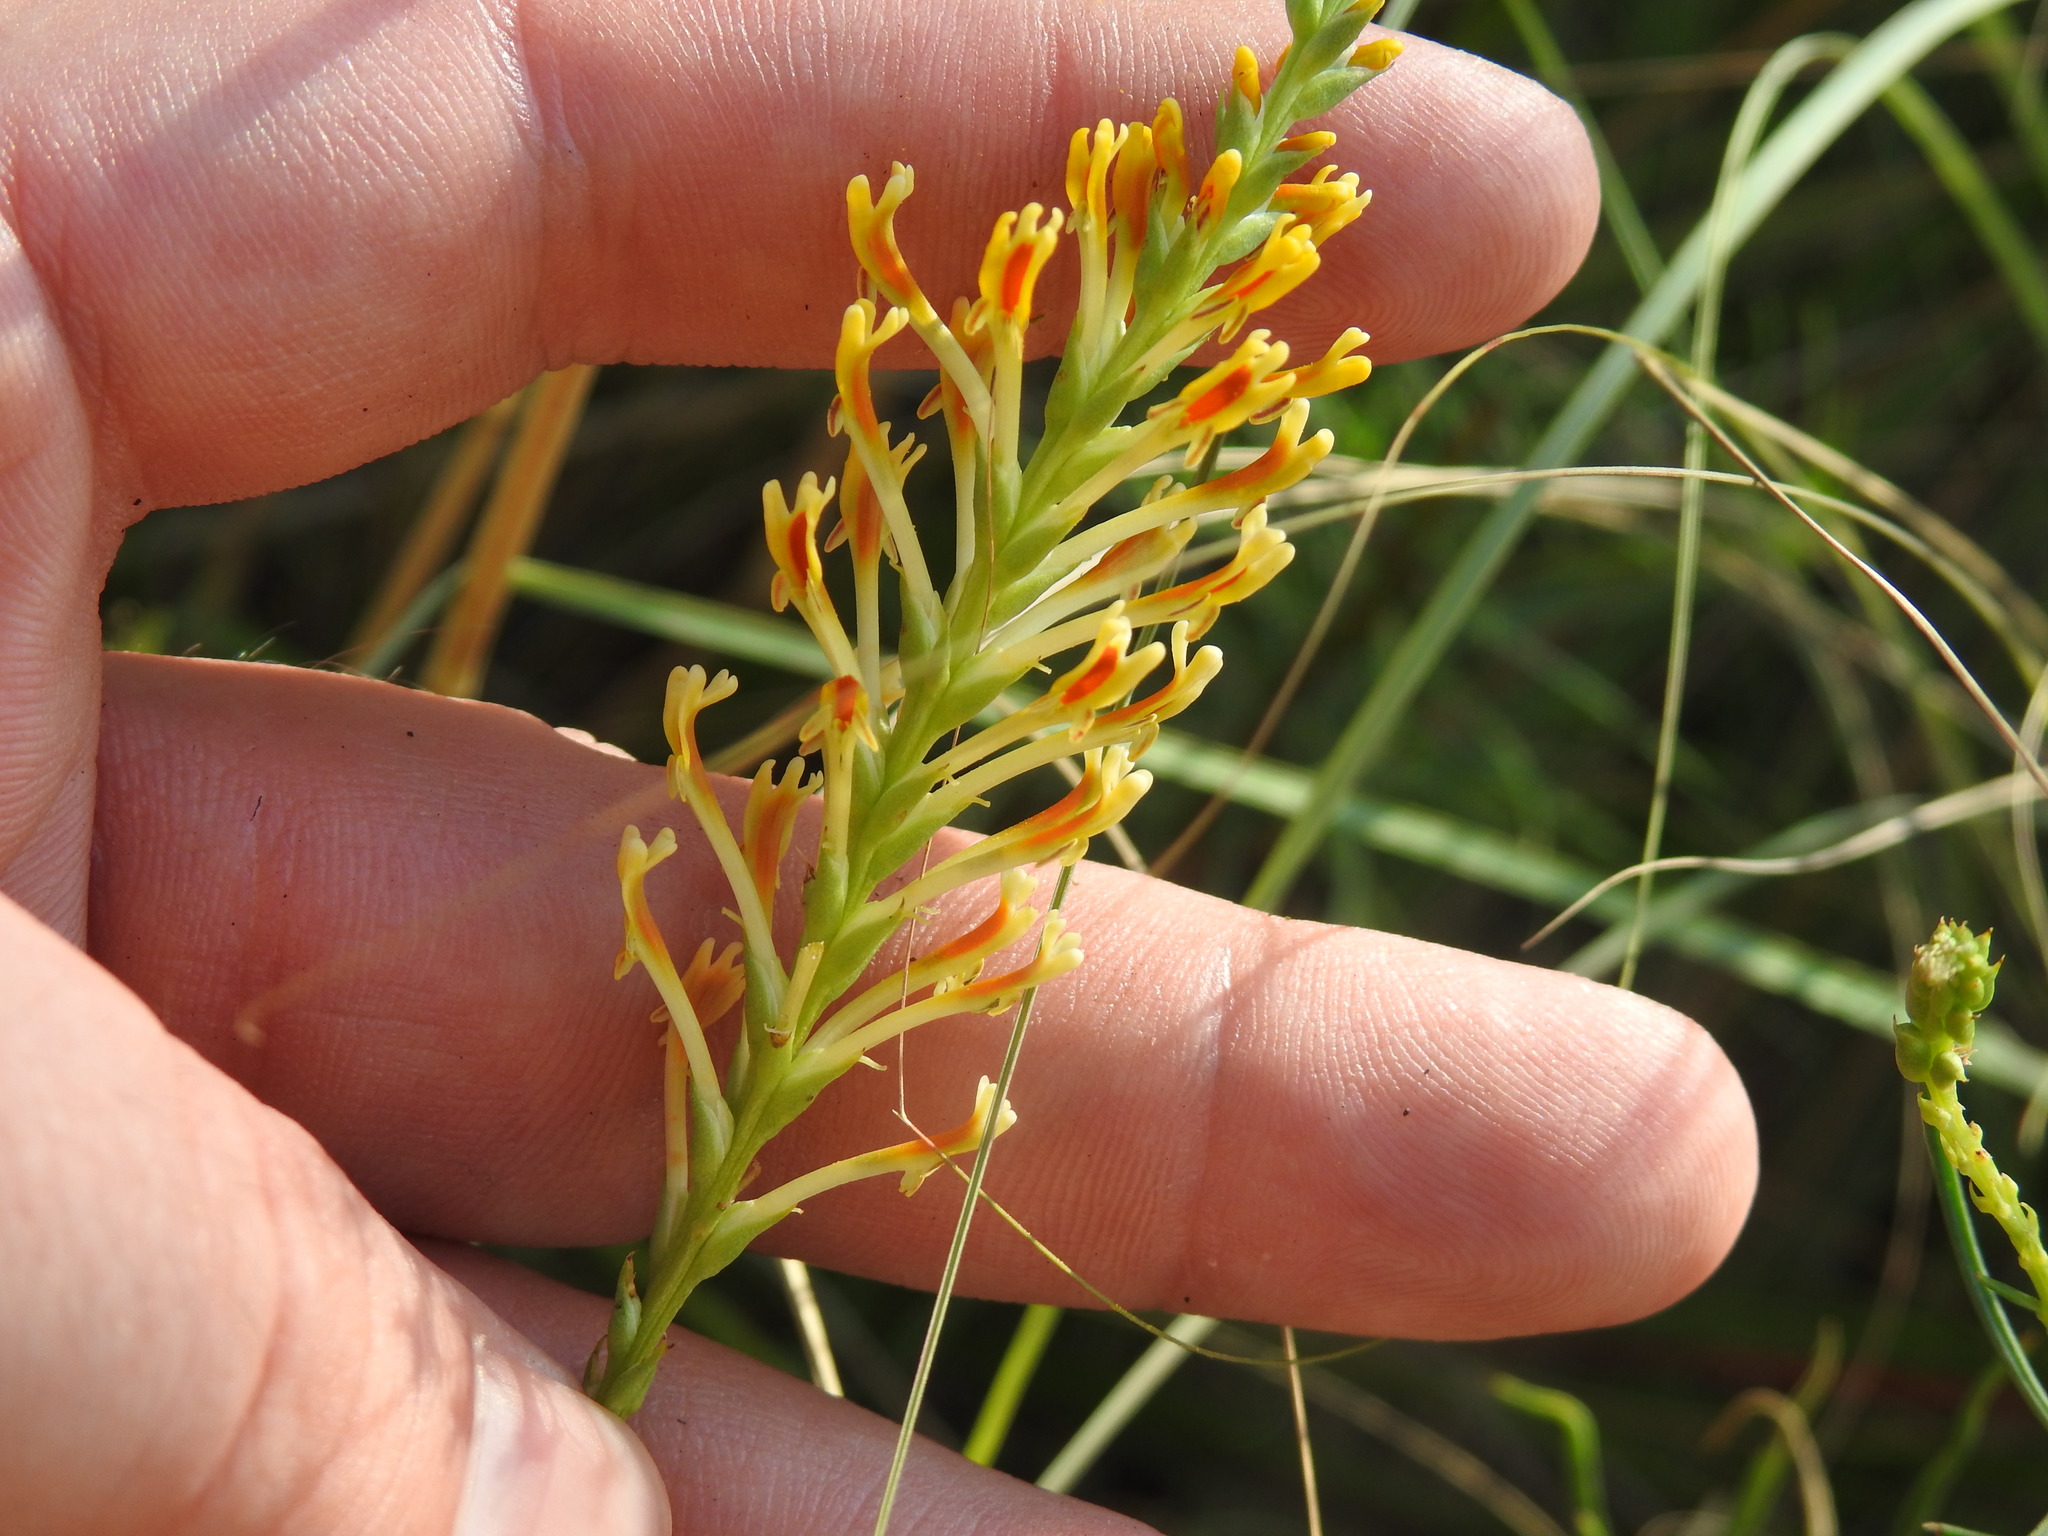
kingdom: Plantae
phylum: Tracheophyta
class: Magnoliopsida
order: Lamiales
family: Scrophulariaceae
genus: Hebenstretia
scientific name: Hebenstretia comosa
